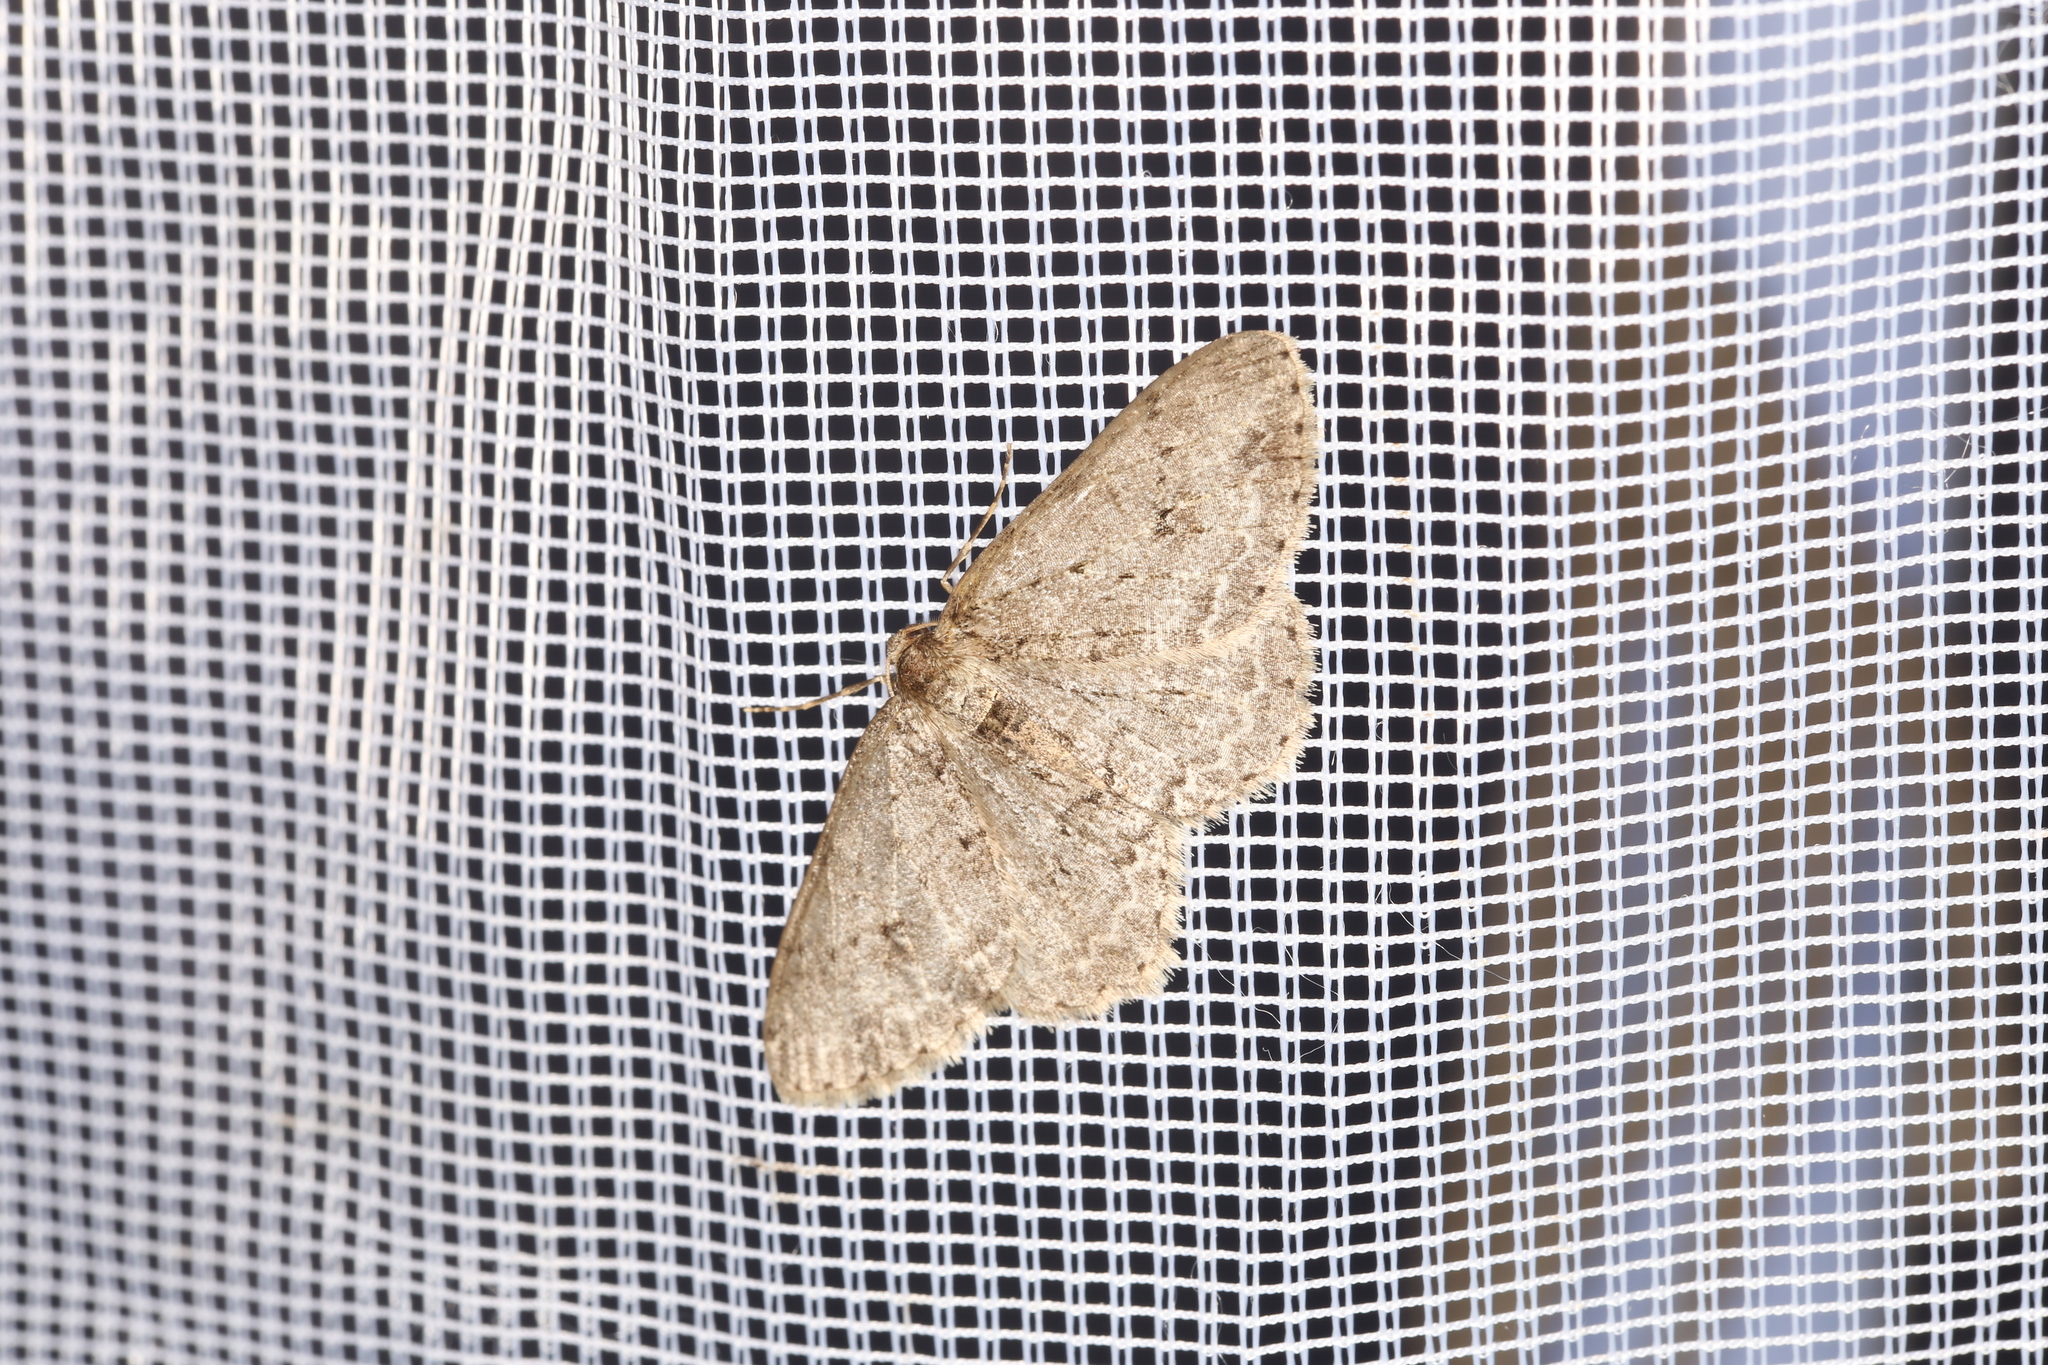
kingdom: Animalia
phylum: Arthropoda
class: Insecta
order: Lepidoptera
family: Geometridae
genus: Ectropis
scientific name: Ectropis crepuscularia
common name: Engrailed
